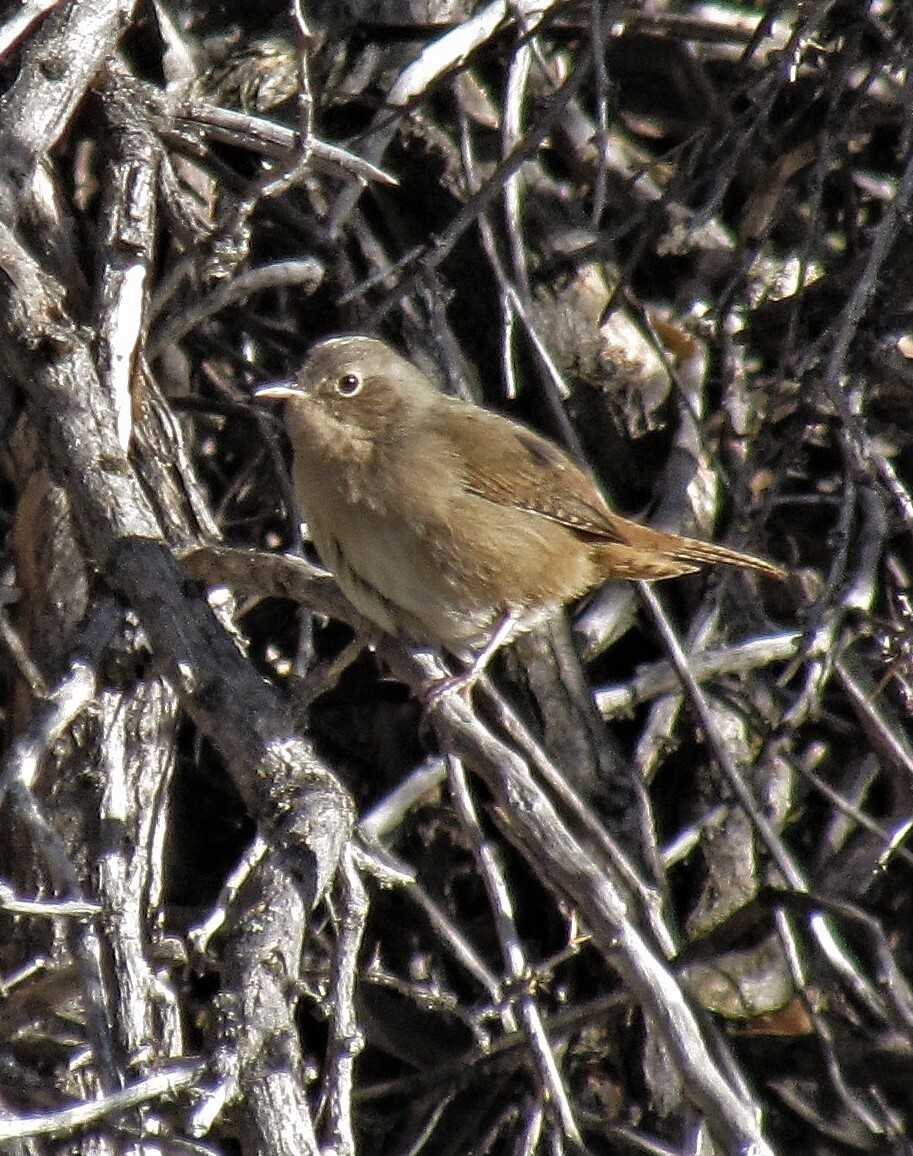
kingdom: Animalia
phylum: Chordata
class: Aves
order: Passeriformes
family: Troglodytidae
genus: Troglodytes
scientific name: Troglodytes aedon
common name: House wren
